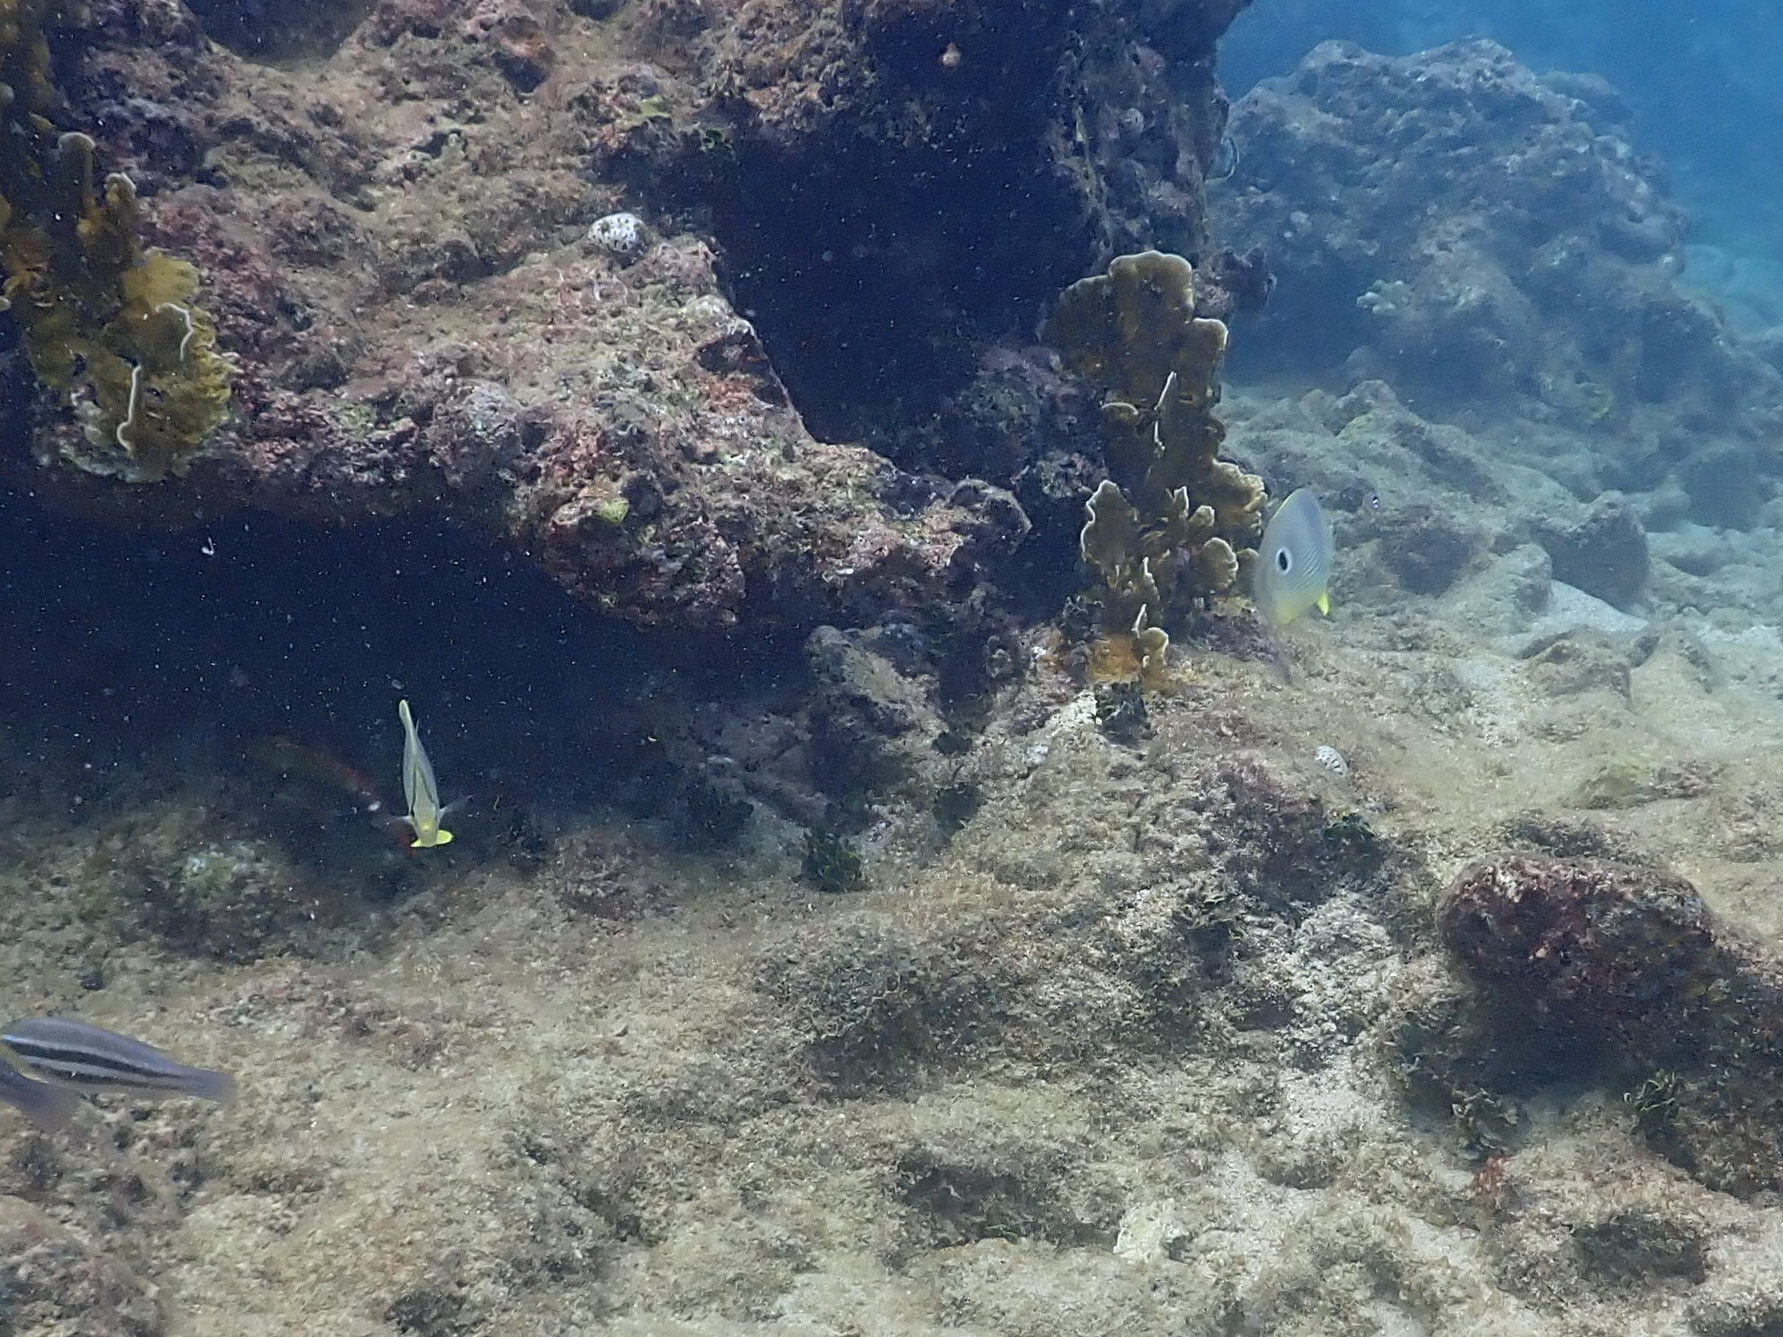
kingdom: Animalia
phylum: Chordata
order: Perciformes
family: Chaetodontidae
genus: Chaetodon
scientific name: Chaetodon capistratus
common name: Kete
